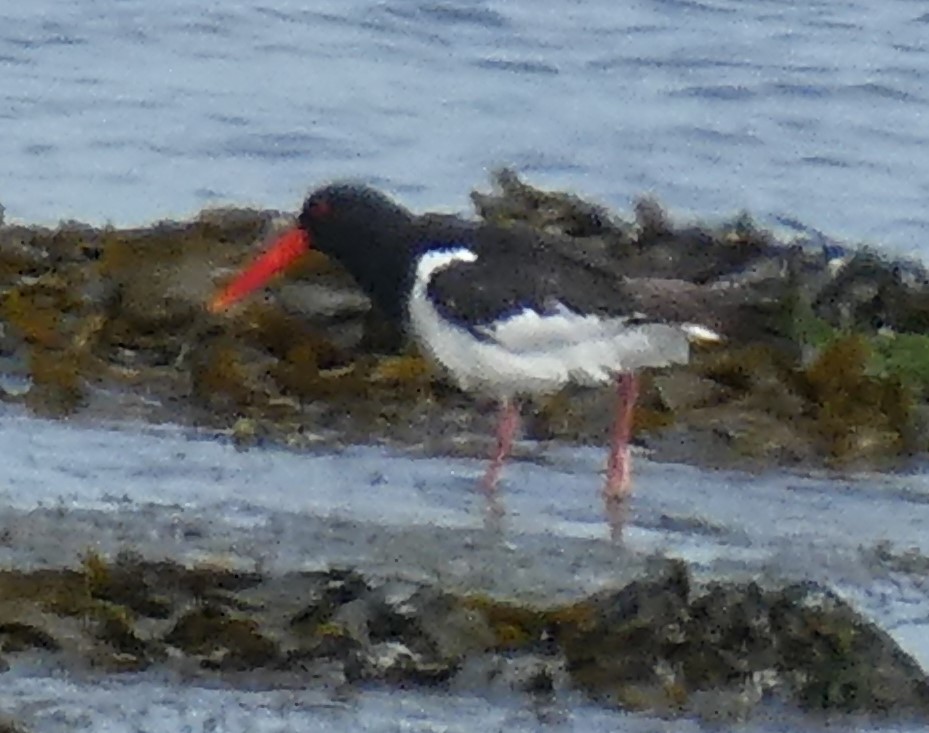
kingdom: Animalia
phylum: Chordata
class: Aves
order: Charadriiformes
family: Haematopodidae
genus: Haematopus
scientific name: Haematopus ostralegus
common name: Eurasian oystercatcher
